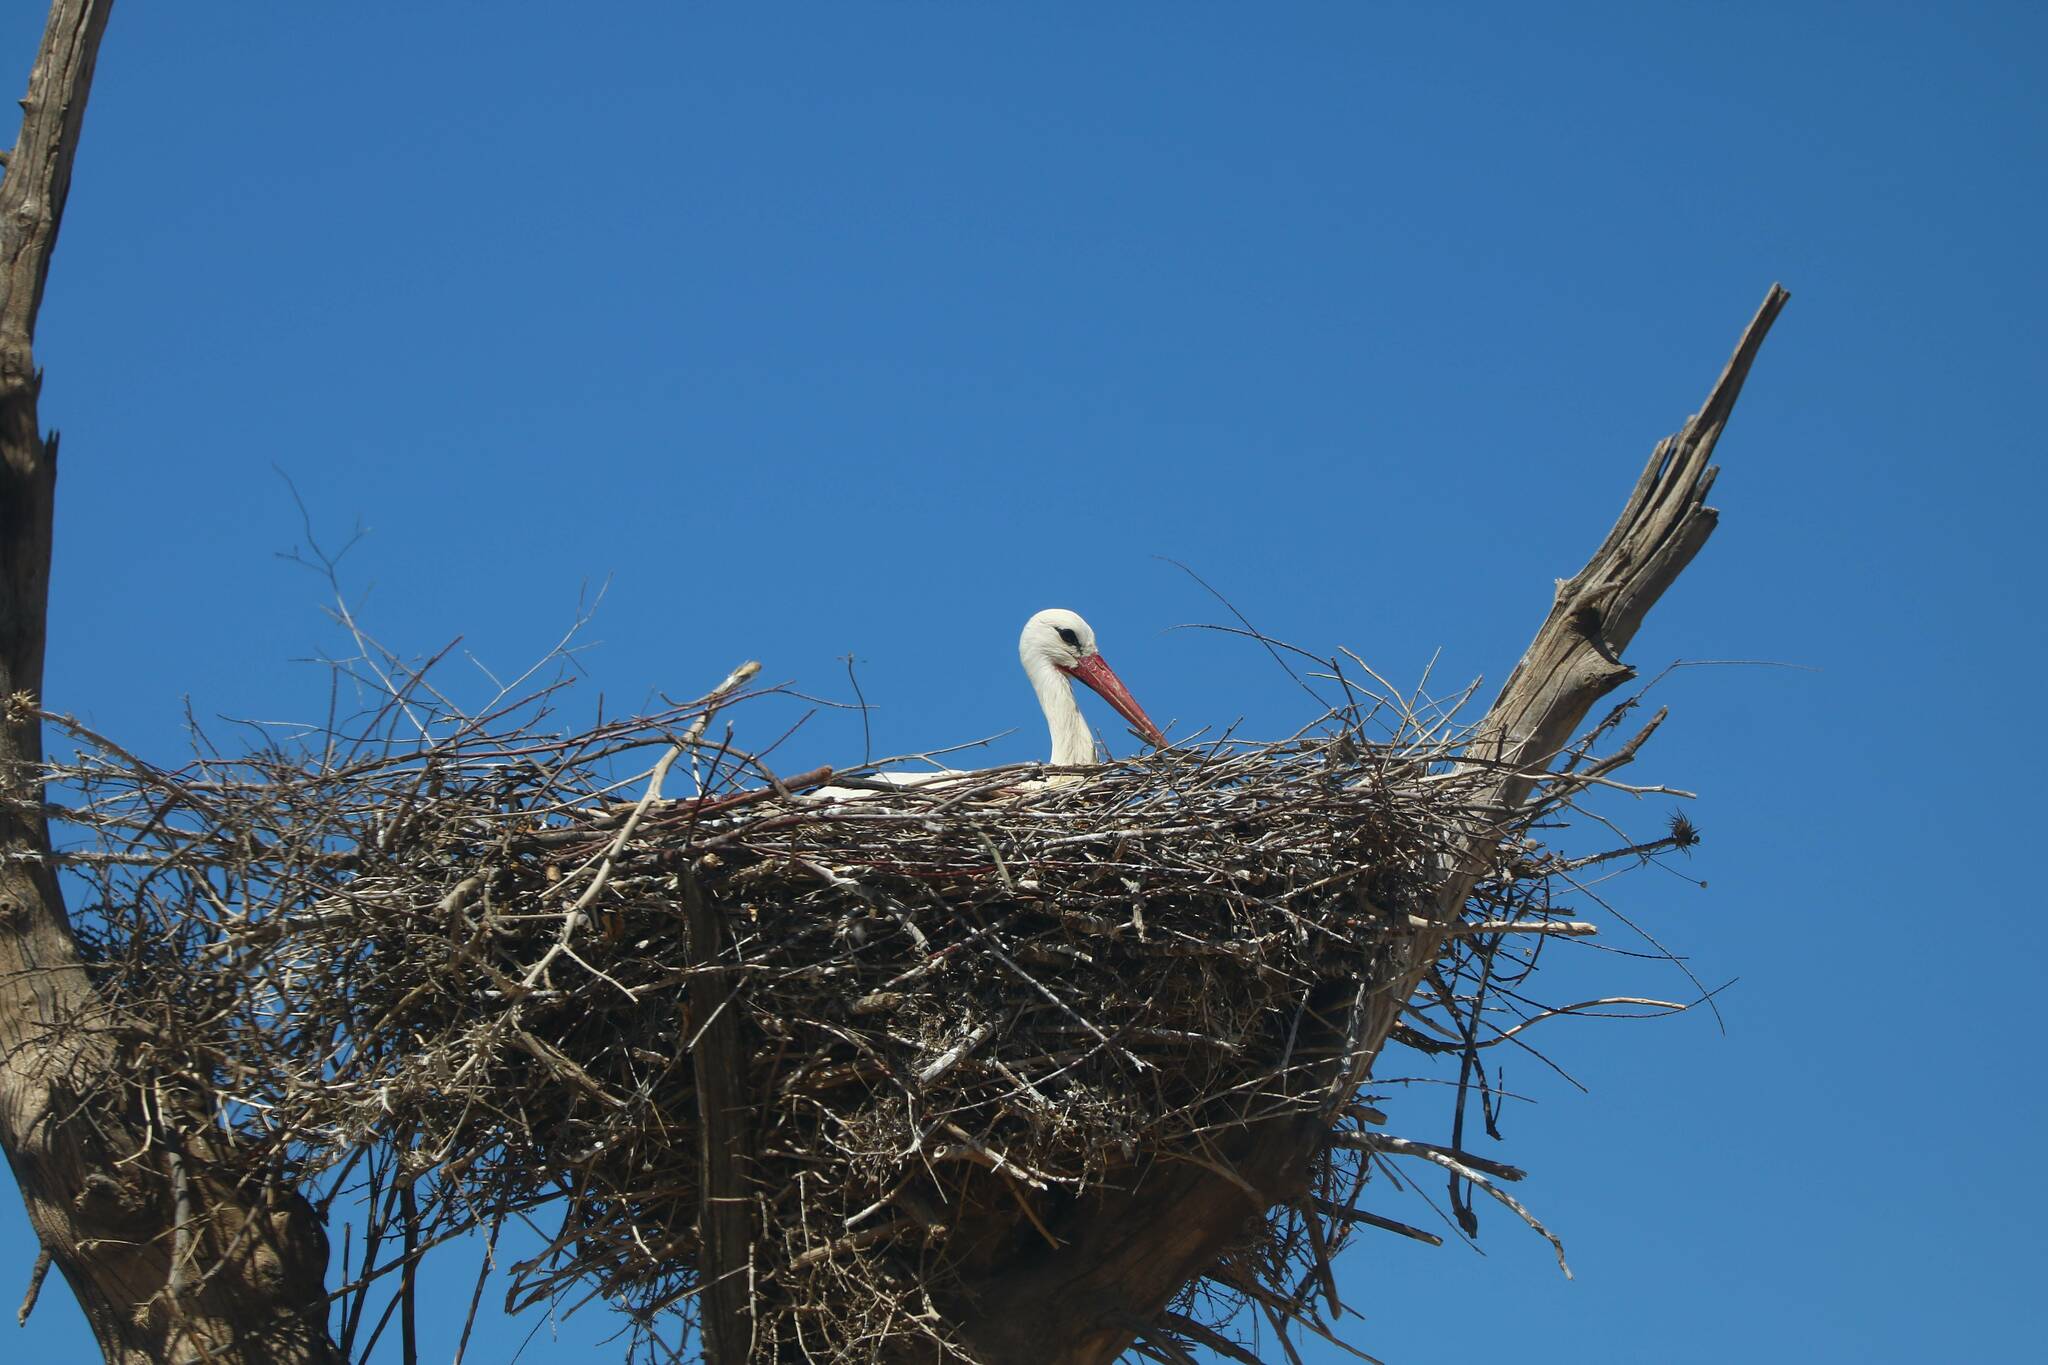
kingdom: Animalia
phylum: Chordata
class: Aves
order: Ciconiiformes
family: Ciconiidae
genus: Ciconia
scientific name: Ciconia ciconia
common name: White stork
